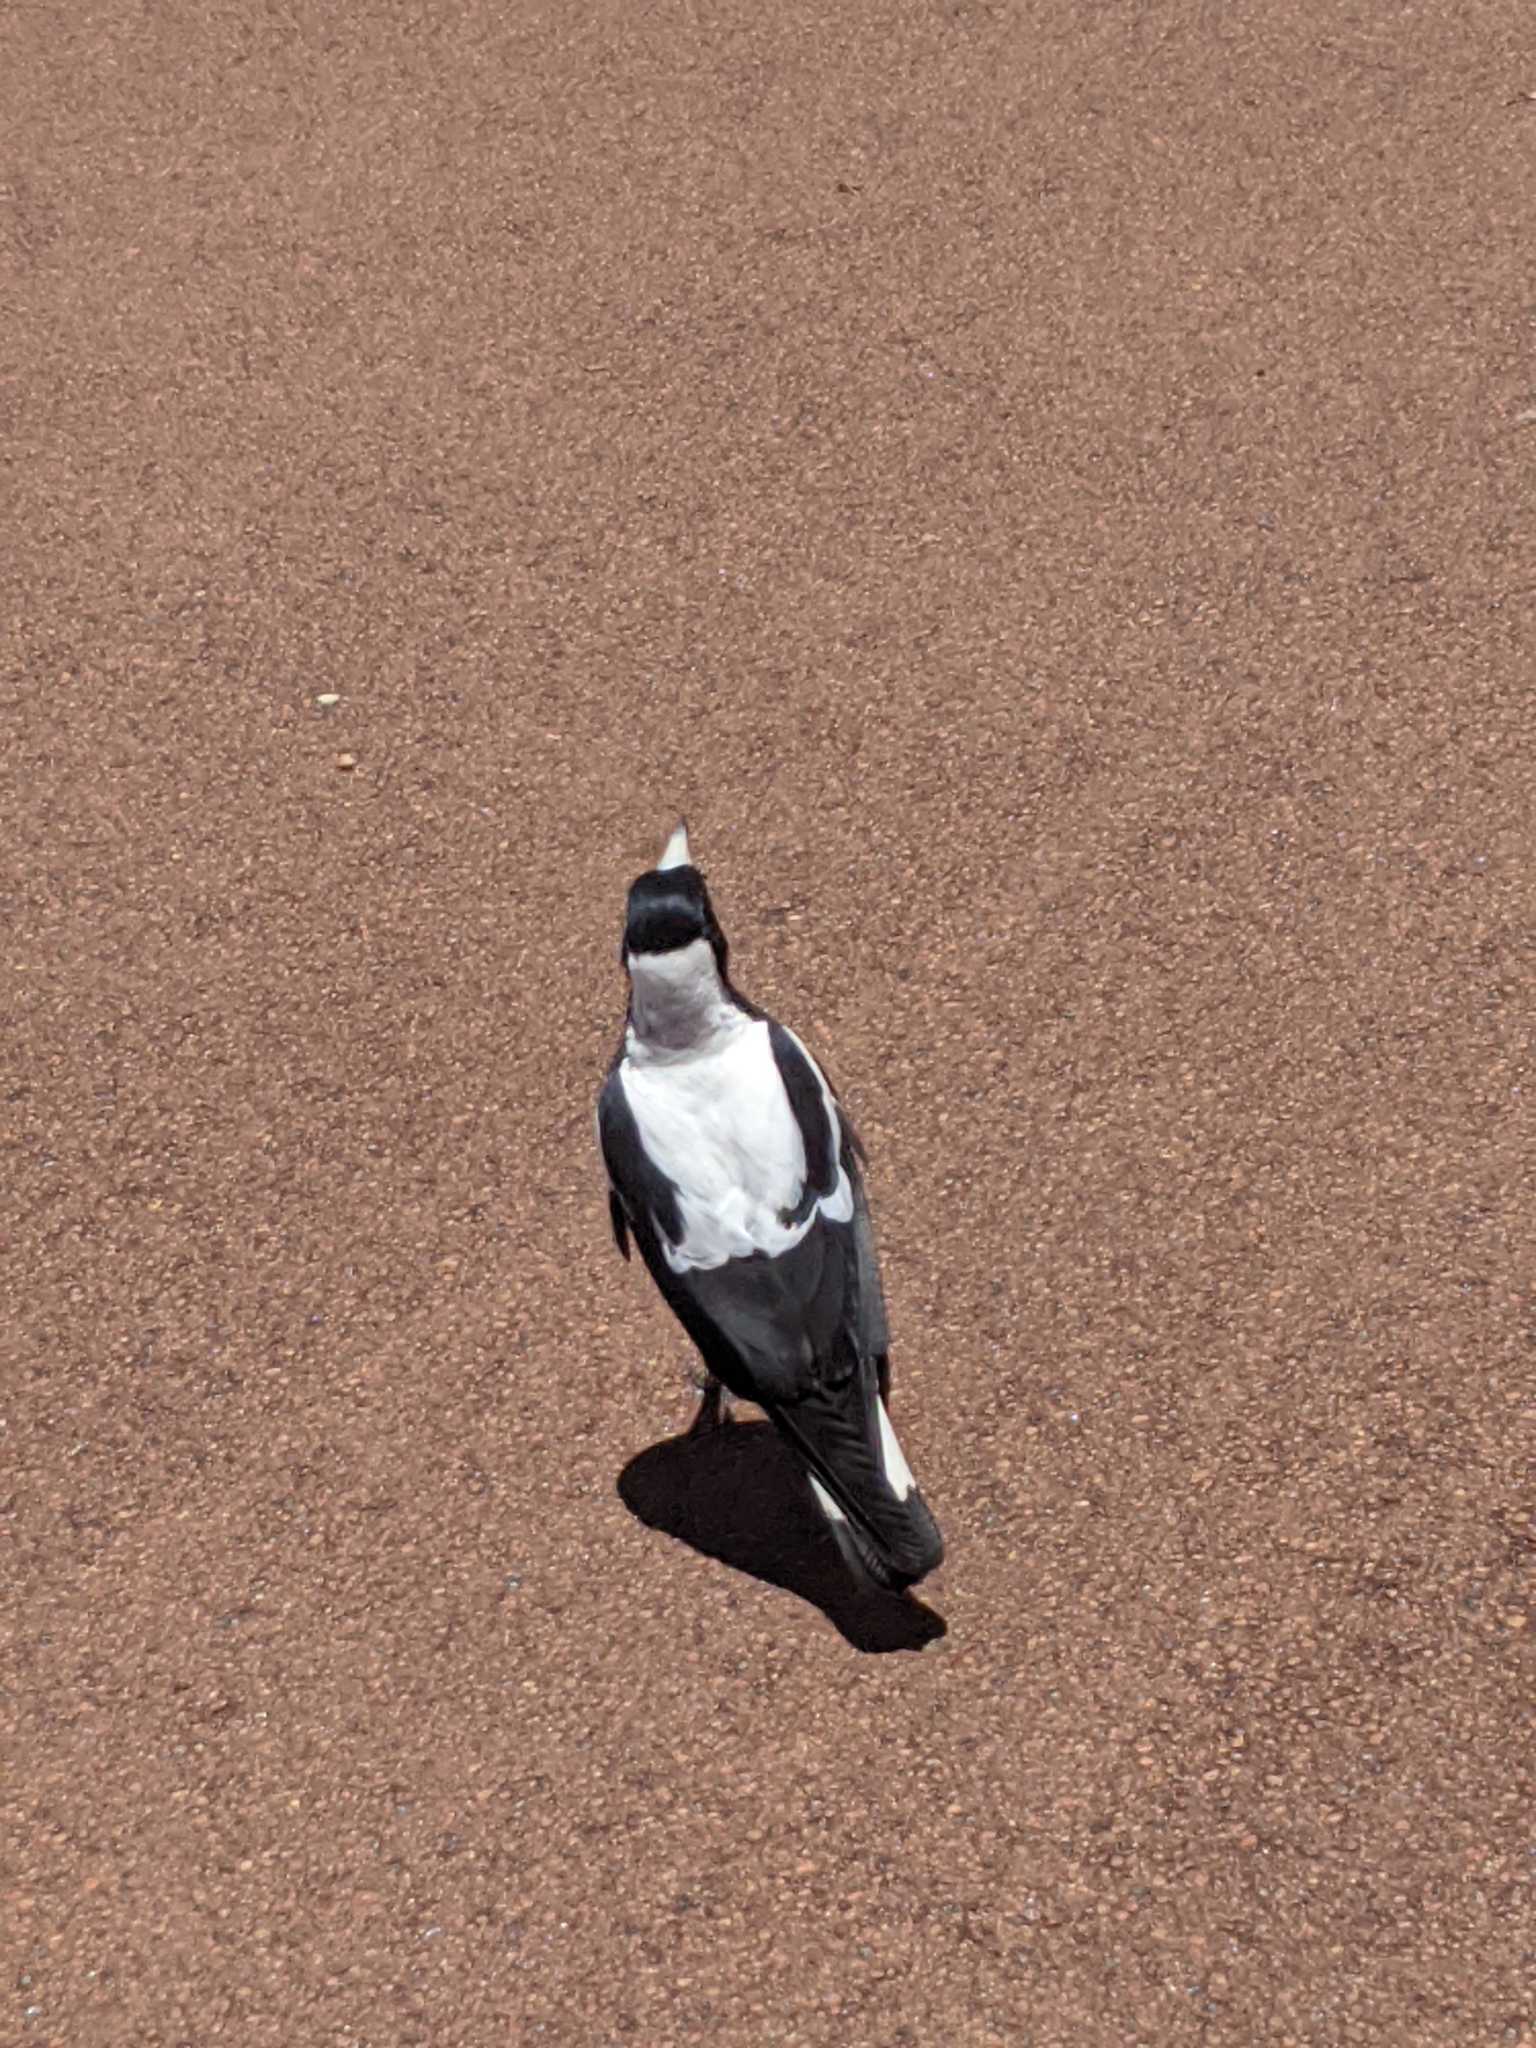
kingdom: Animalia
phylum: Chordata
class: Aves
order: Passeriformes
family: Cracticidae
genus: Gymnorhina
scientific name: Gymnorhina tibicen
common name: Australian magpie
